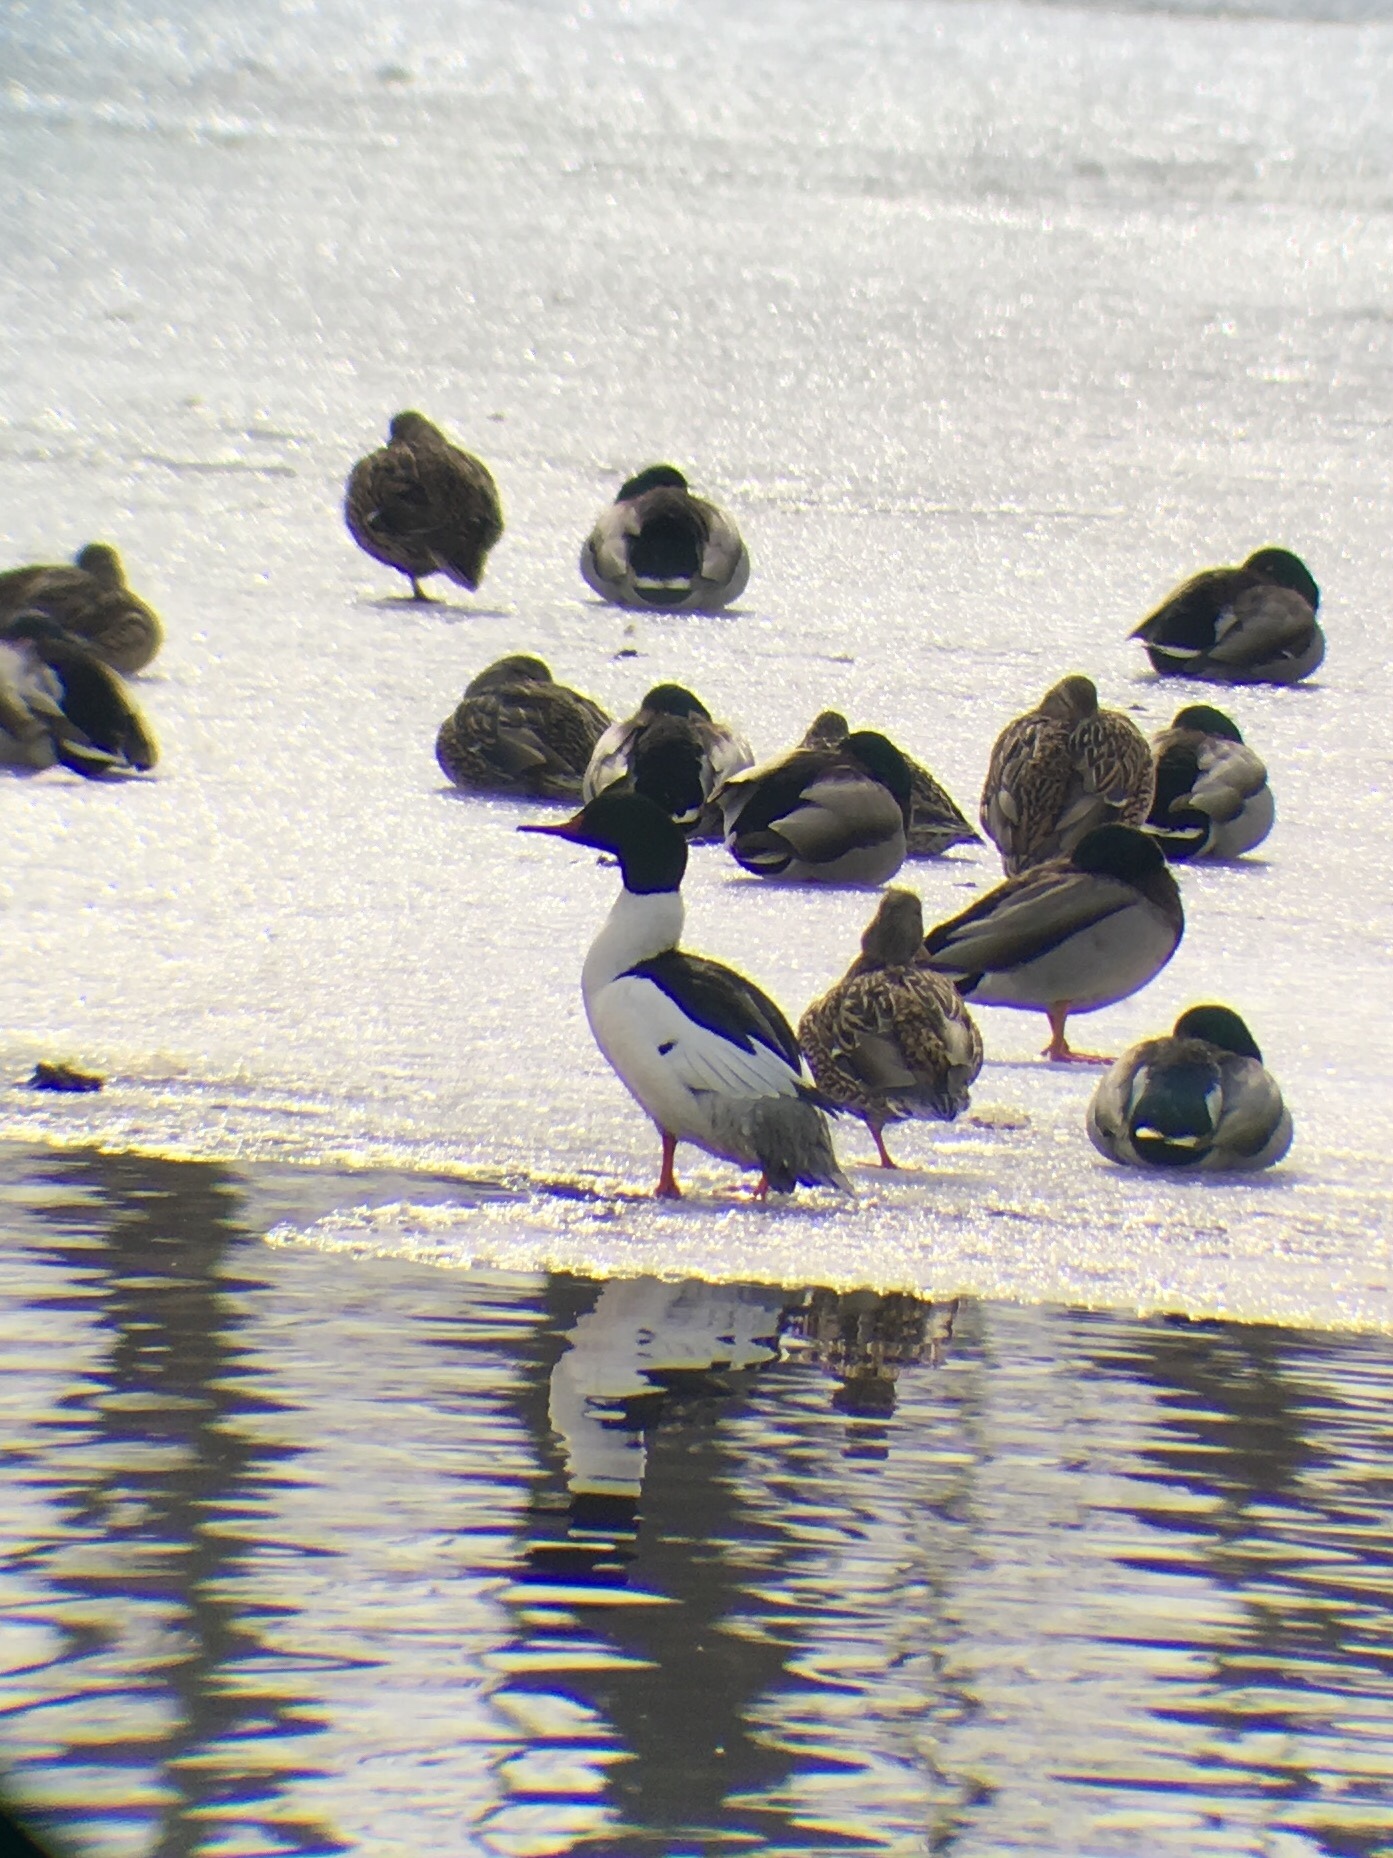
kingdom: Animalia
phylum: Chordata
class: Aves
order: Anseriformes
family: Anatidae
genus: Mergus
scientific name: Mergus merganser
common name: Common merganser
